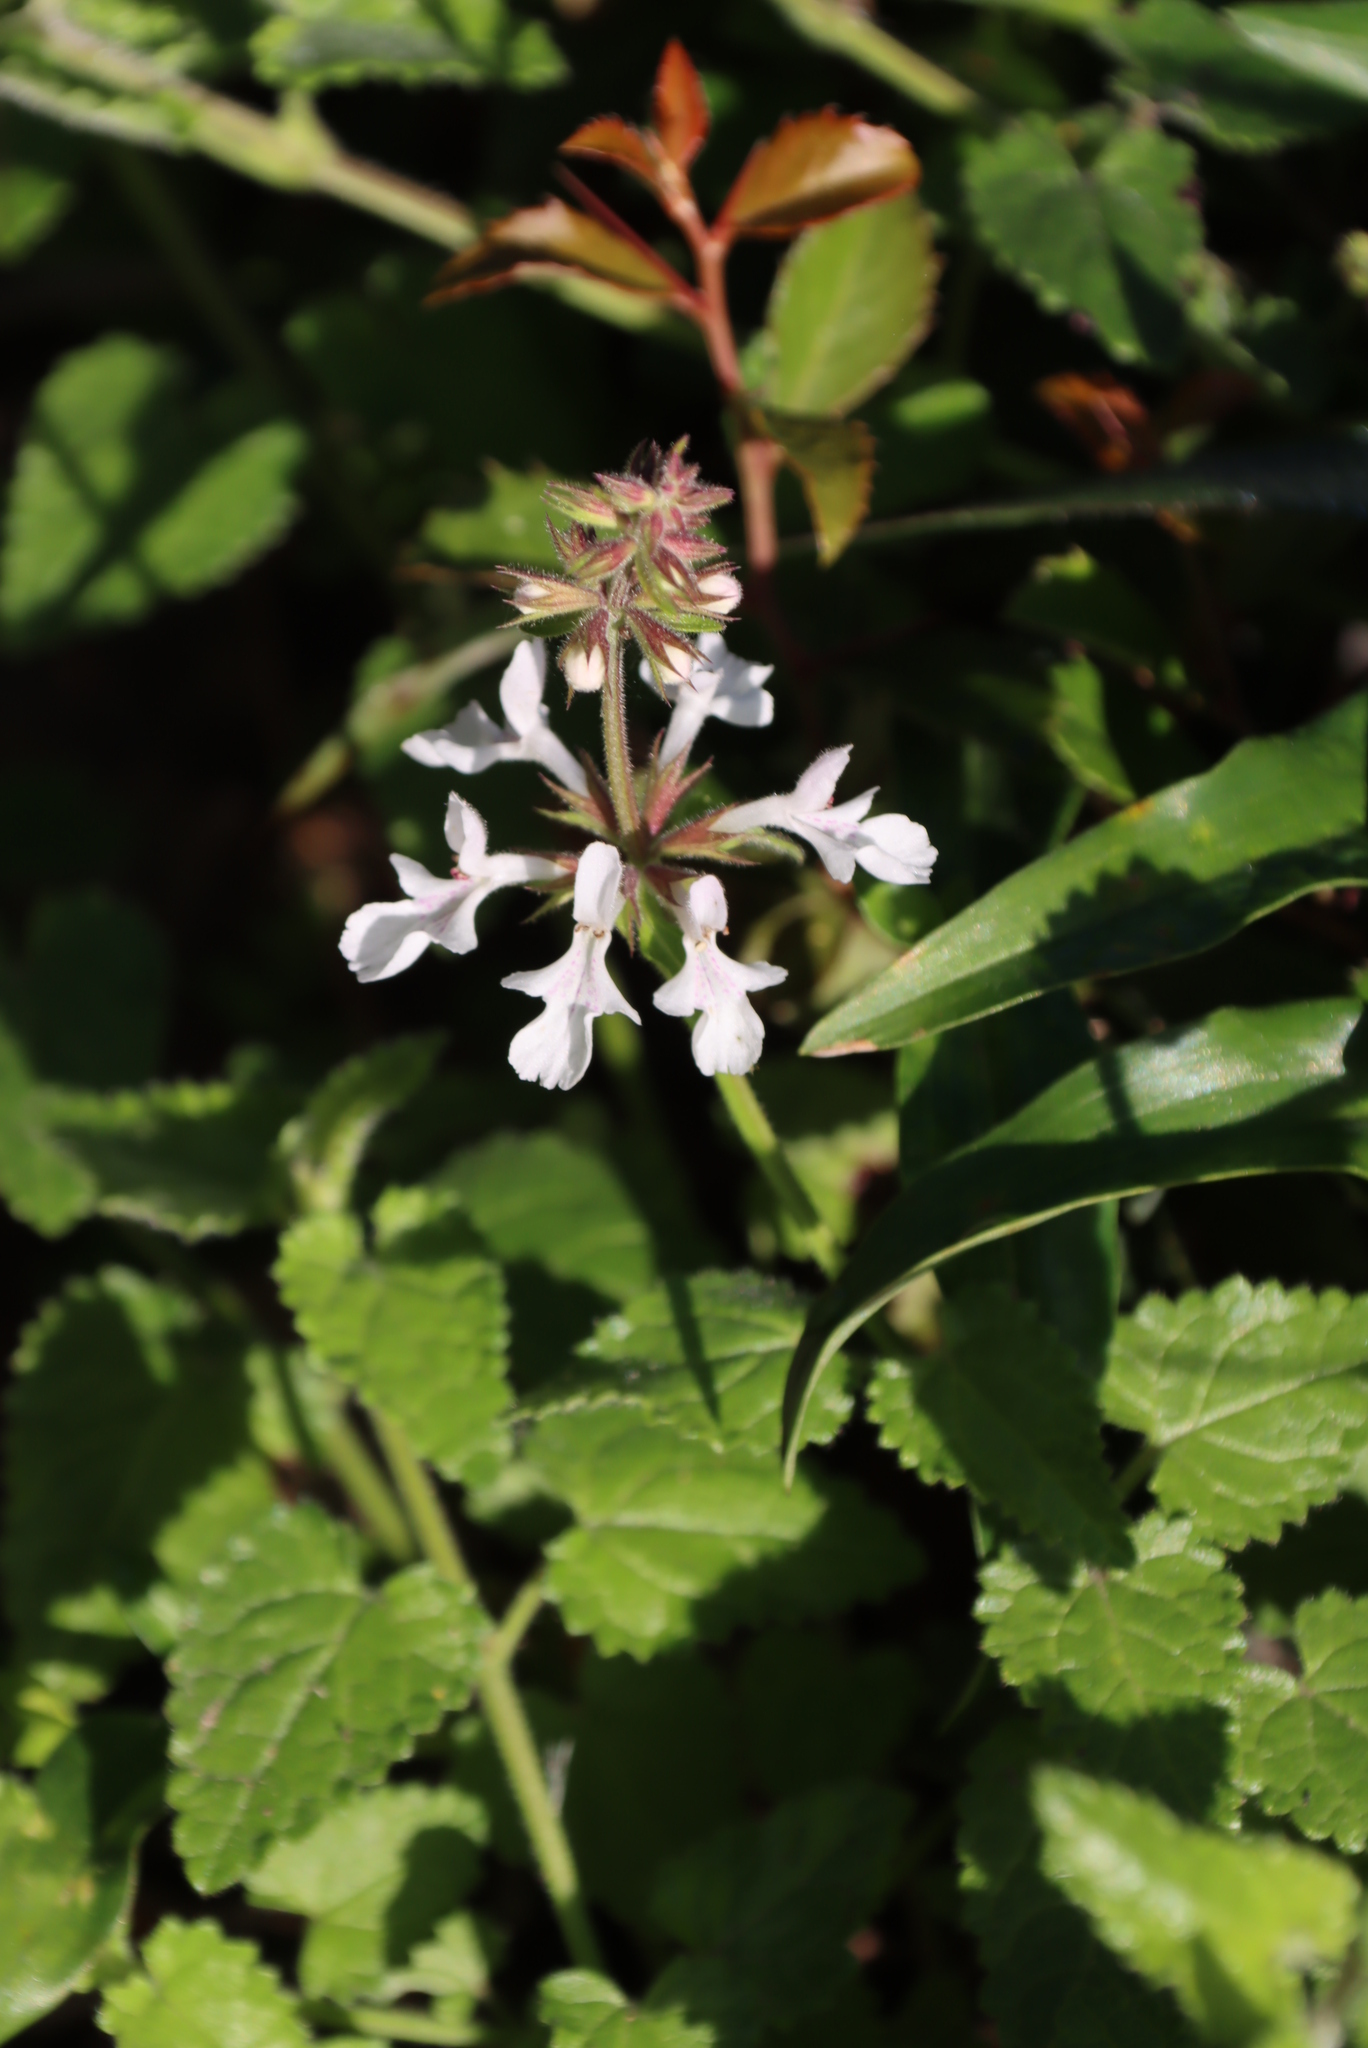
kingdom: Plantae
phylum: Tracheophyta
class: Magnoliopsida
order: Lamiales
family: Lamiaceae
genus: Stachys
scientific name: Stachys aethiopica
